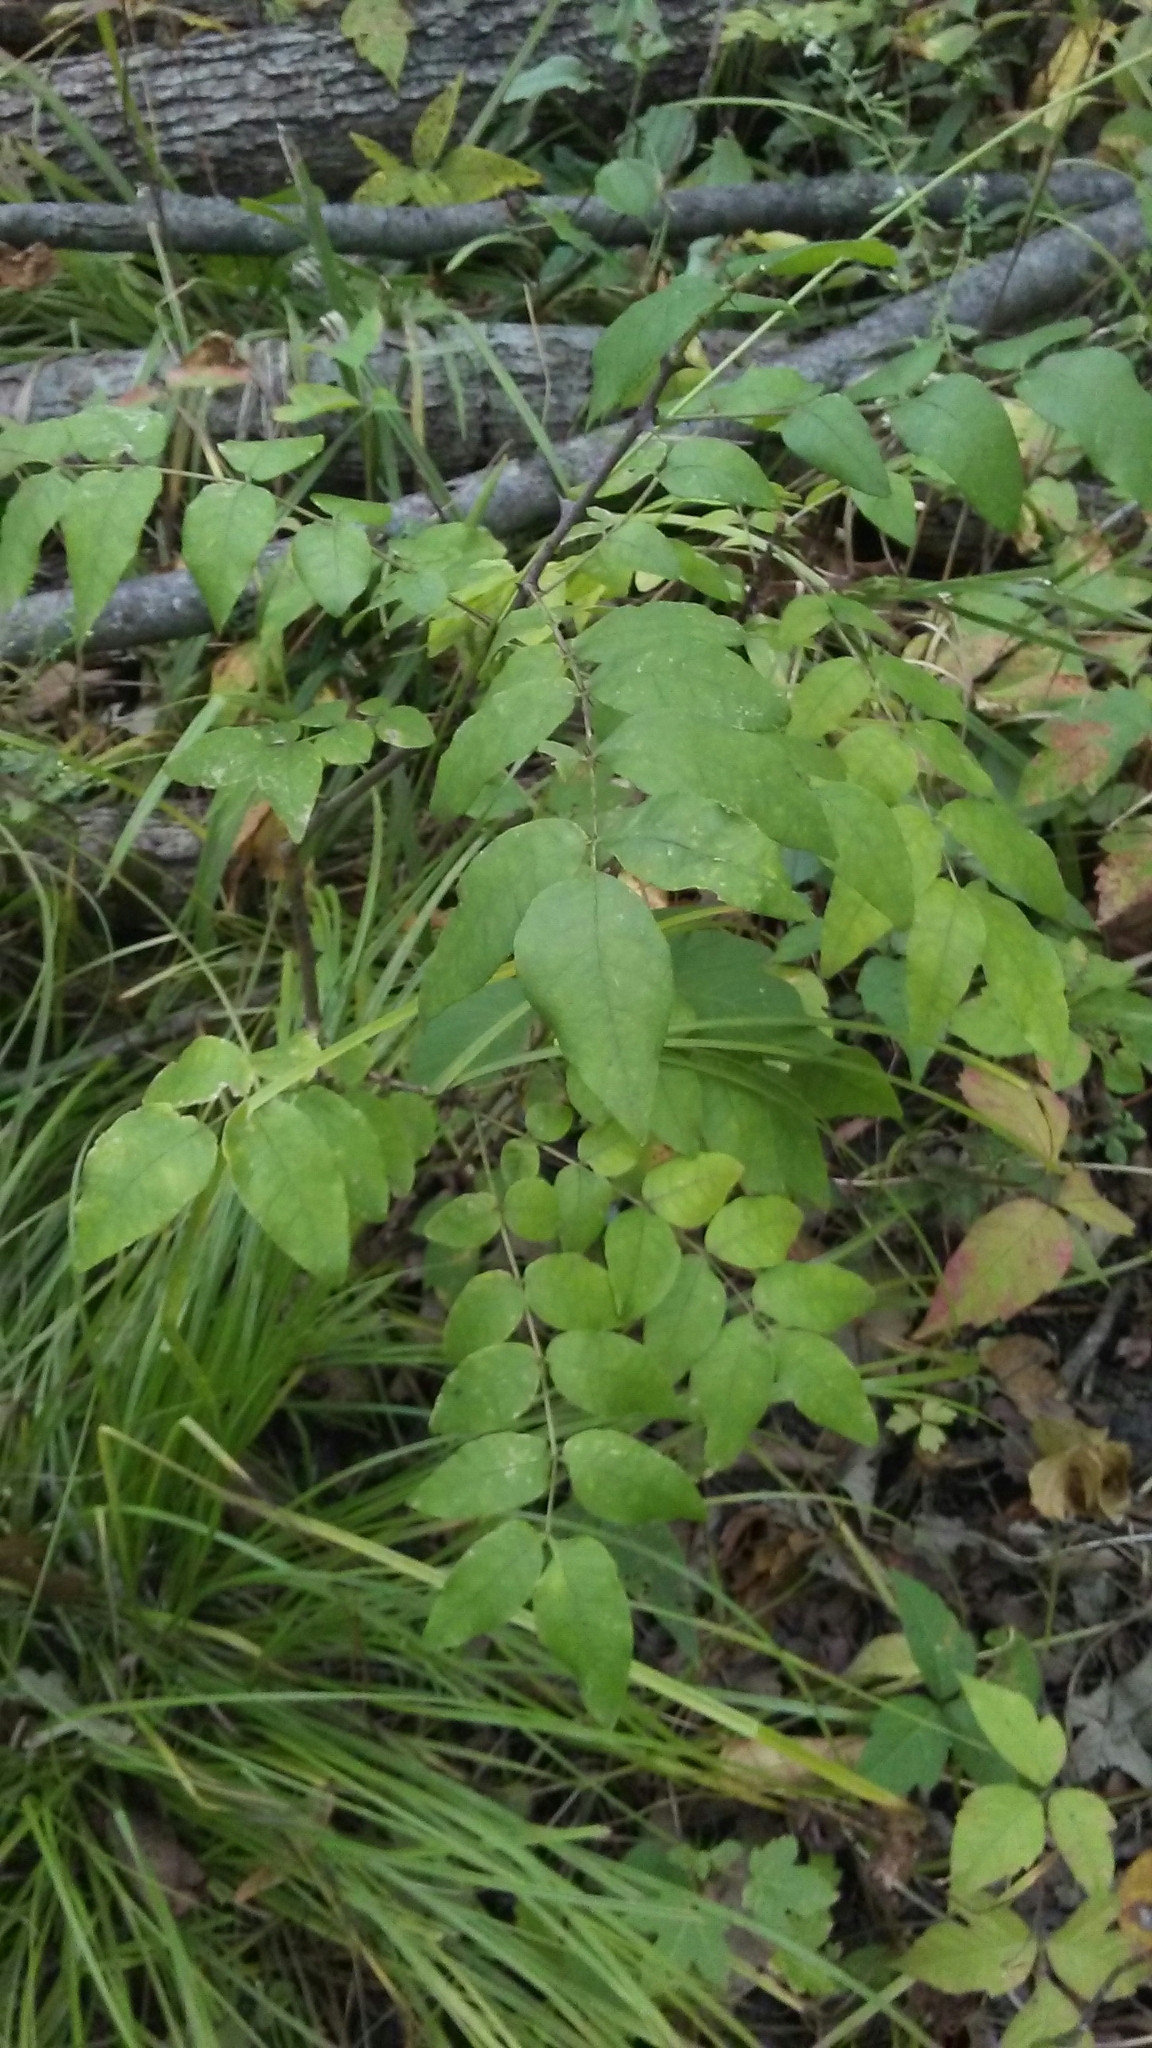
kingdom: Plantae
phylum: Tracheophyta
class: Magnoliopsida
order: Sapindales
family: Rutaceae
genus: Zanthoxylum
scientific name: Zanthoxylum americanum
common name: Northern prickly-ash
